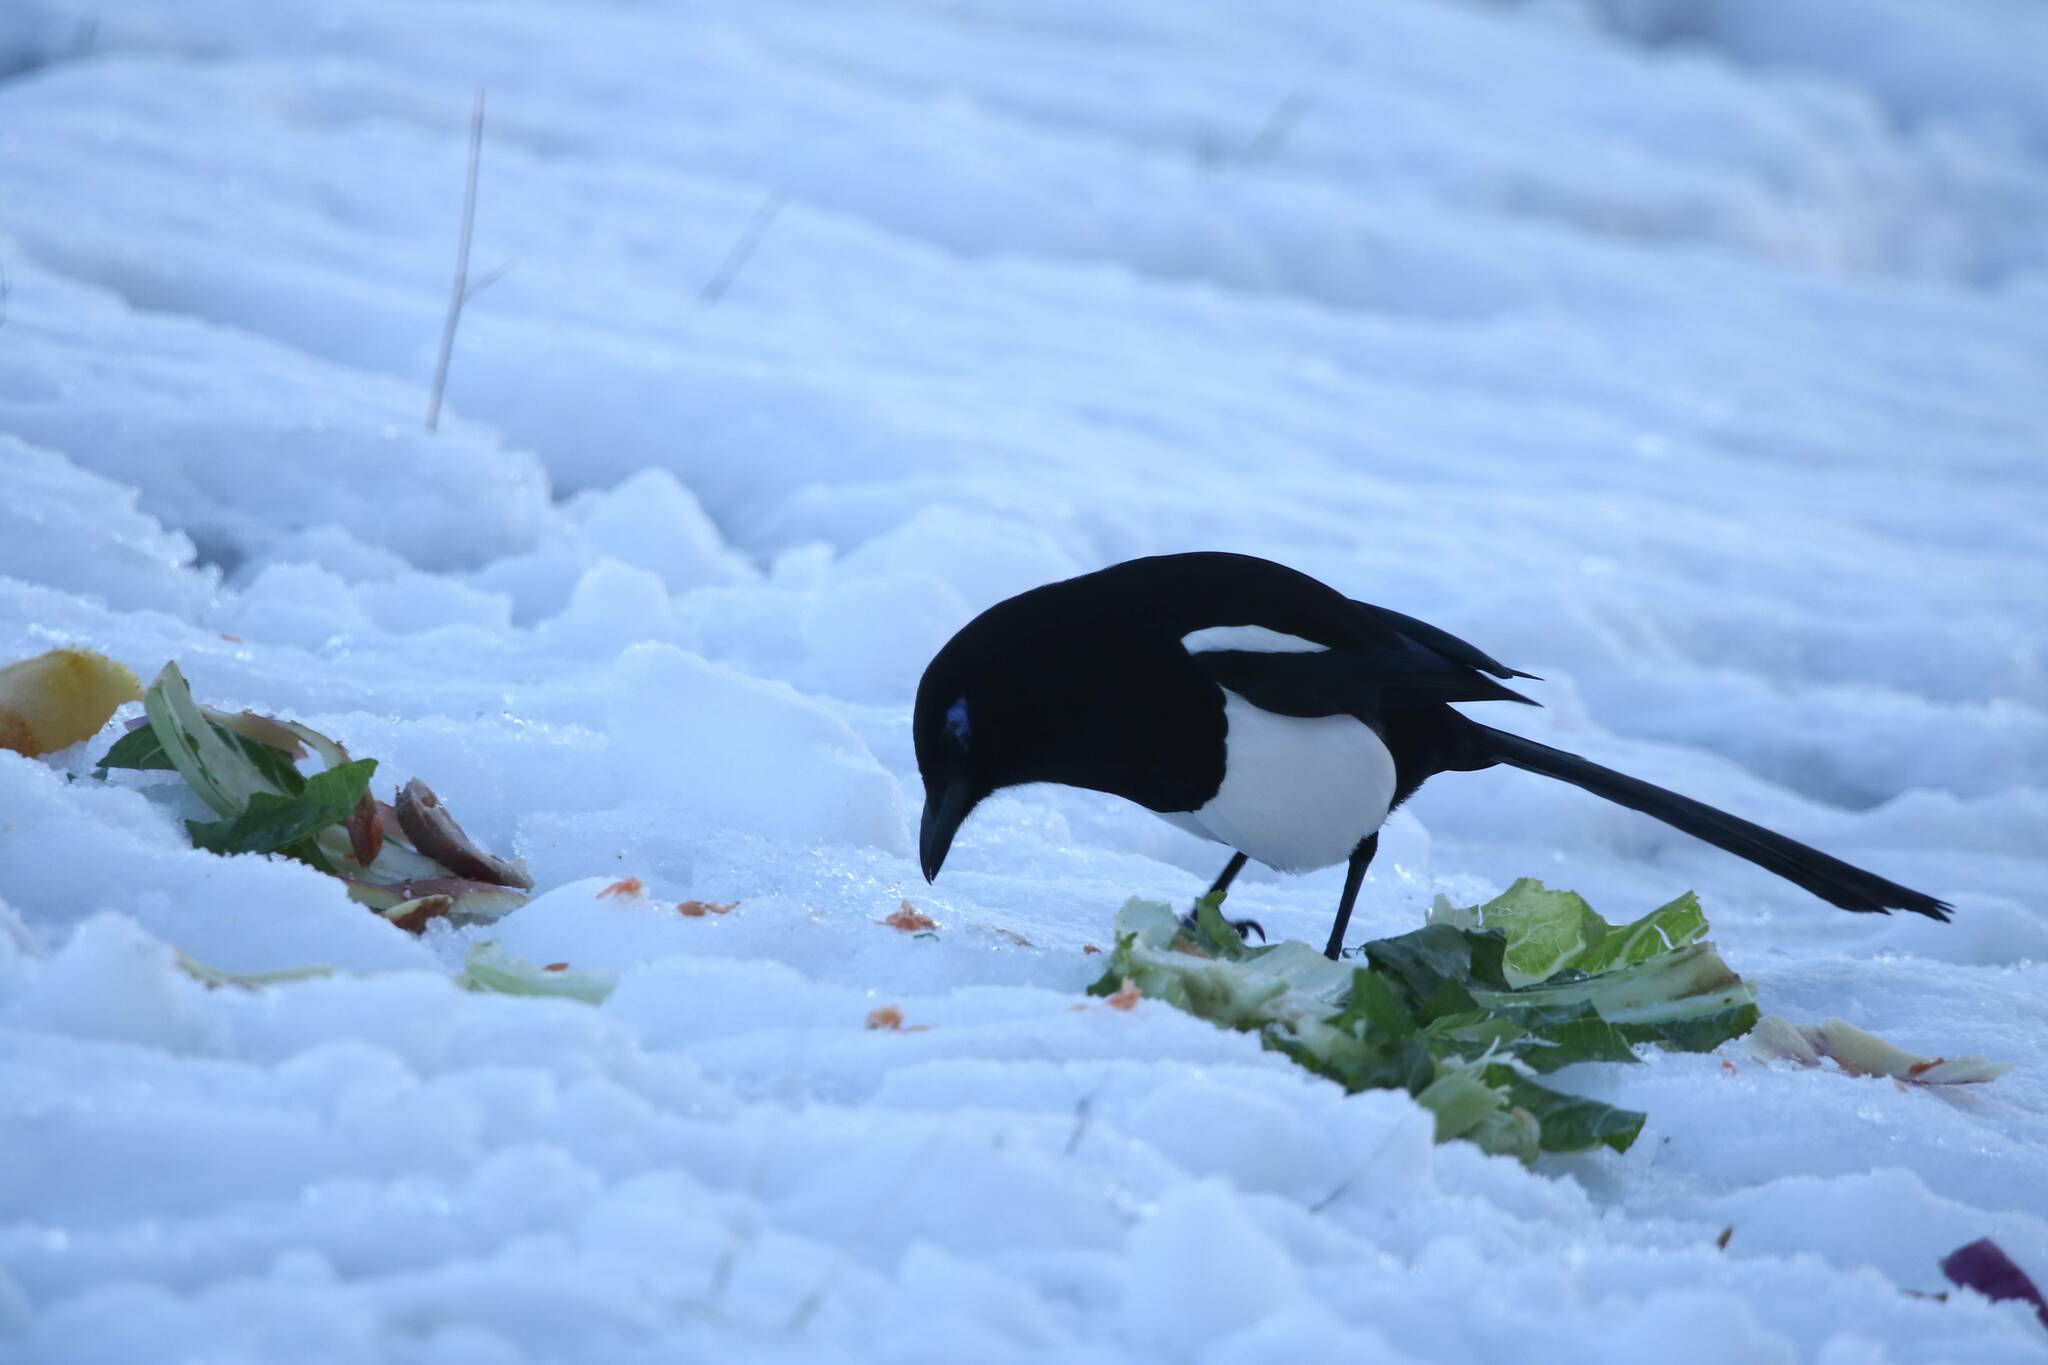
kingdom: Animalia
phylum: Chordata
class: Aves
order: Passeriformes
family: Corvidae
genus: Pica
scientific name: Pica mauritanica
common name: Maghreb magpie
